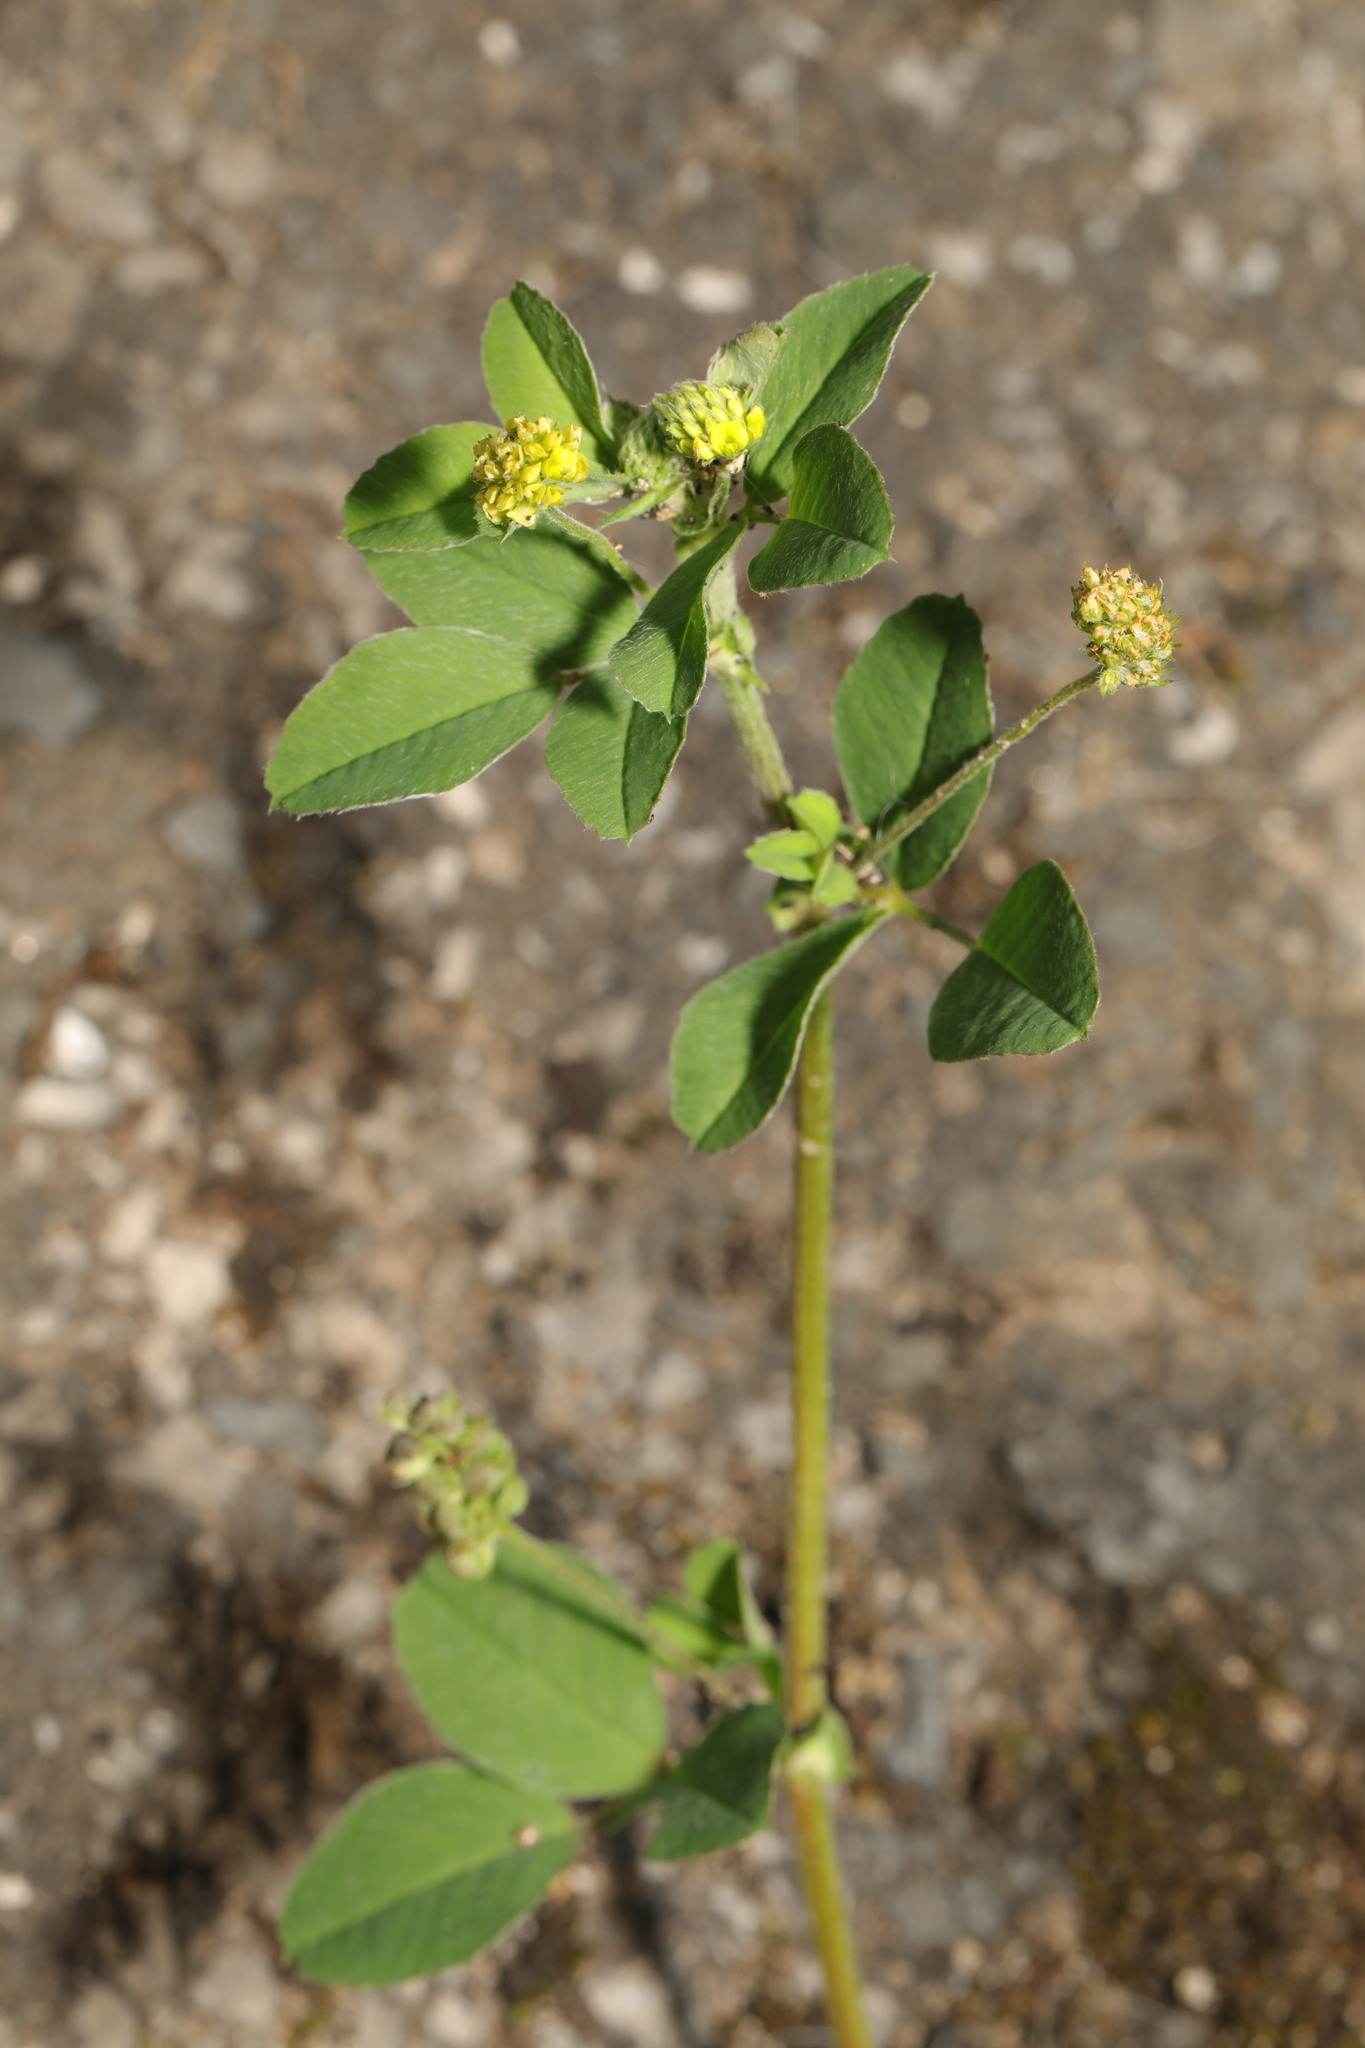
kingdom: Plantae
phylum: Tracheophyta
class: Magnoliopsida
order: Fabales
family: Fabaceae
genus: Medicago
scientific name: Medicago lupulina
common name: Black medick
